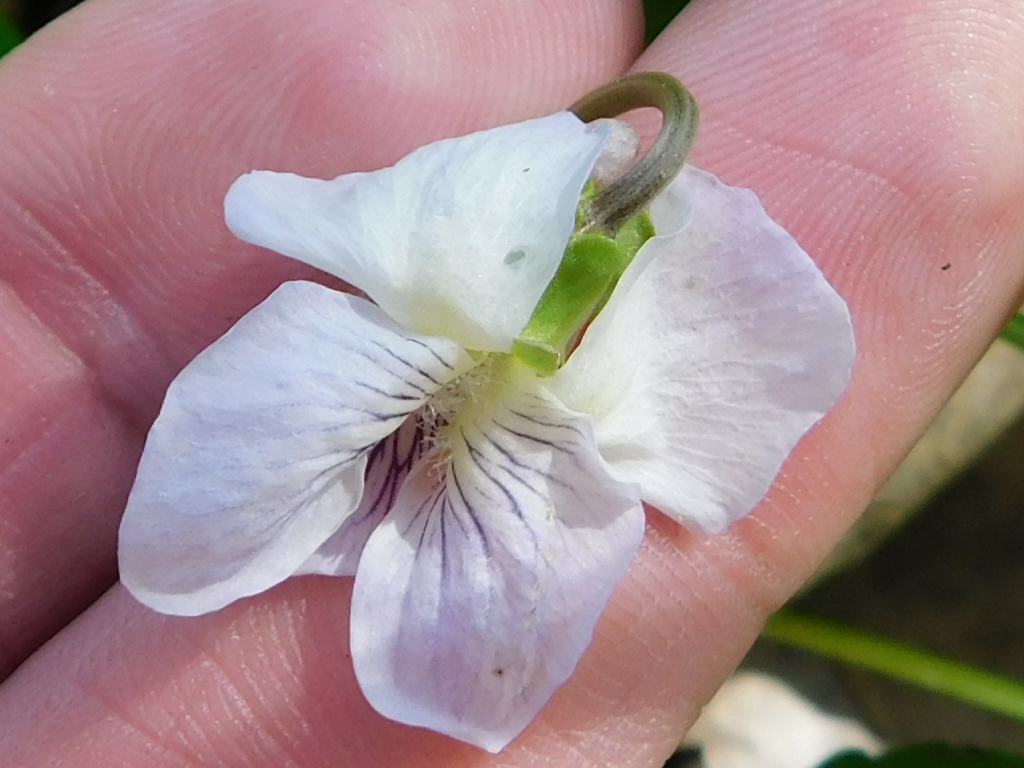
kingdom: Plantae
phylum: Tracheophyta
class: Magnoliopsida
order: Malpighiales
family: Violaceae
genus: Viola
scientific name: Viola sororia
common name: Dooryard violet
